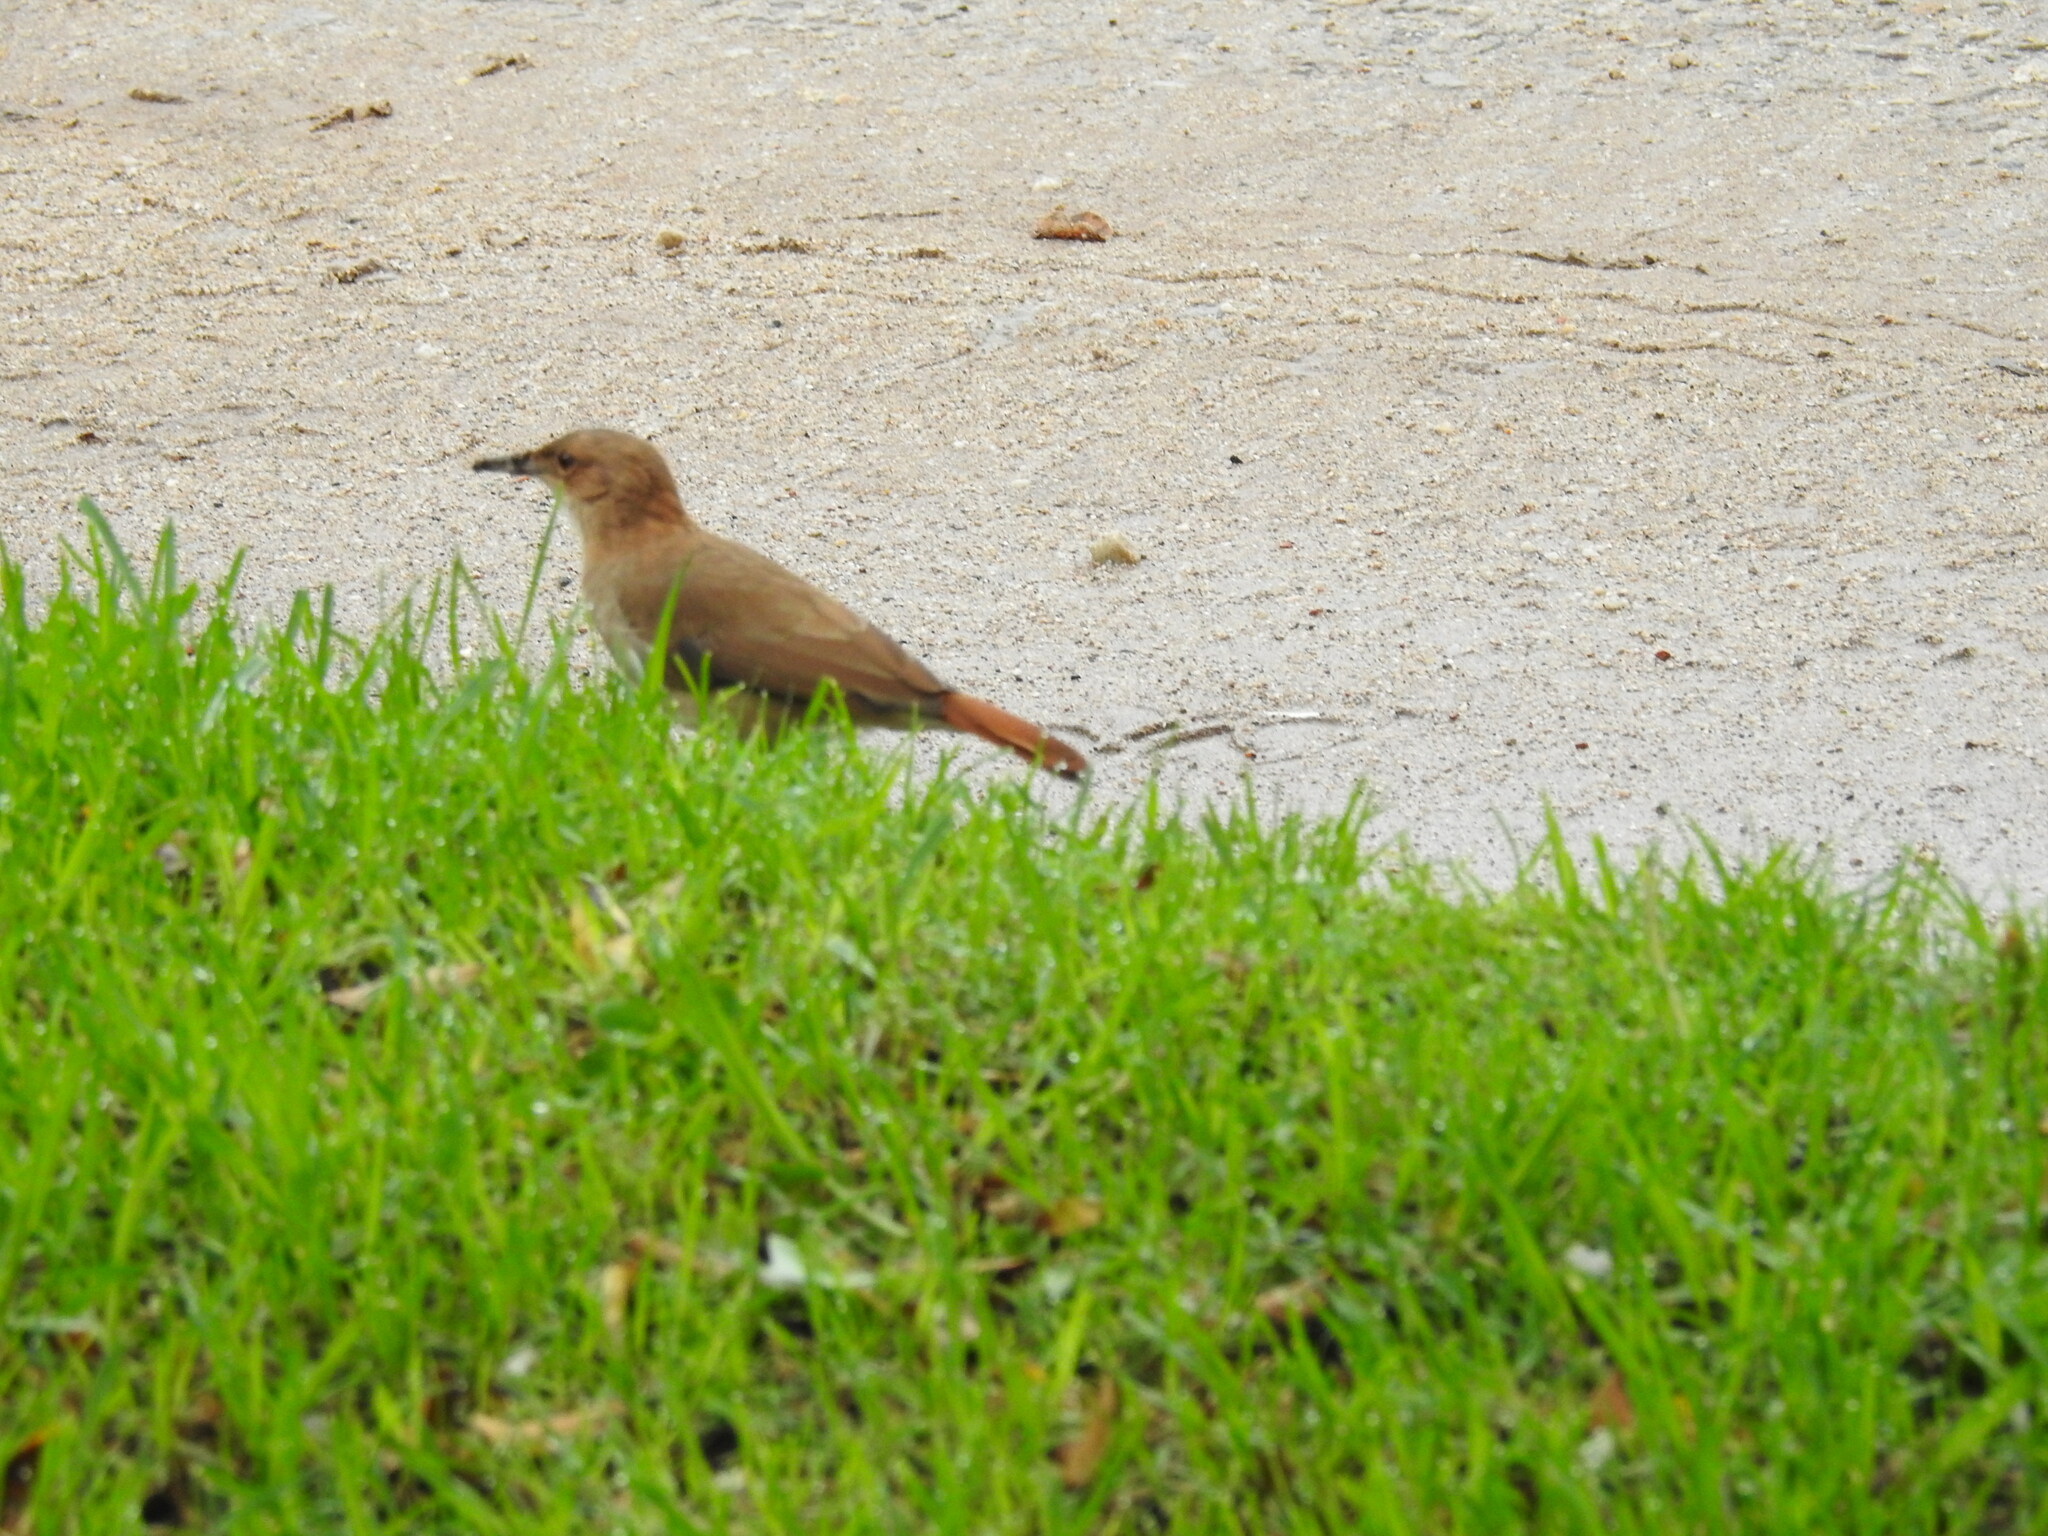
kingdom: Animalia
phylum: Chordata
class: Aves
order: Passeriformes
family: Furnariidae
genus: Furnarius
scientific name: Furnarius rufus
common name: Rufous hornero
